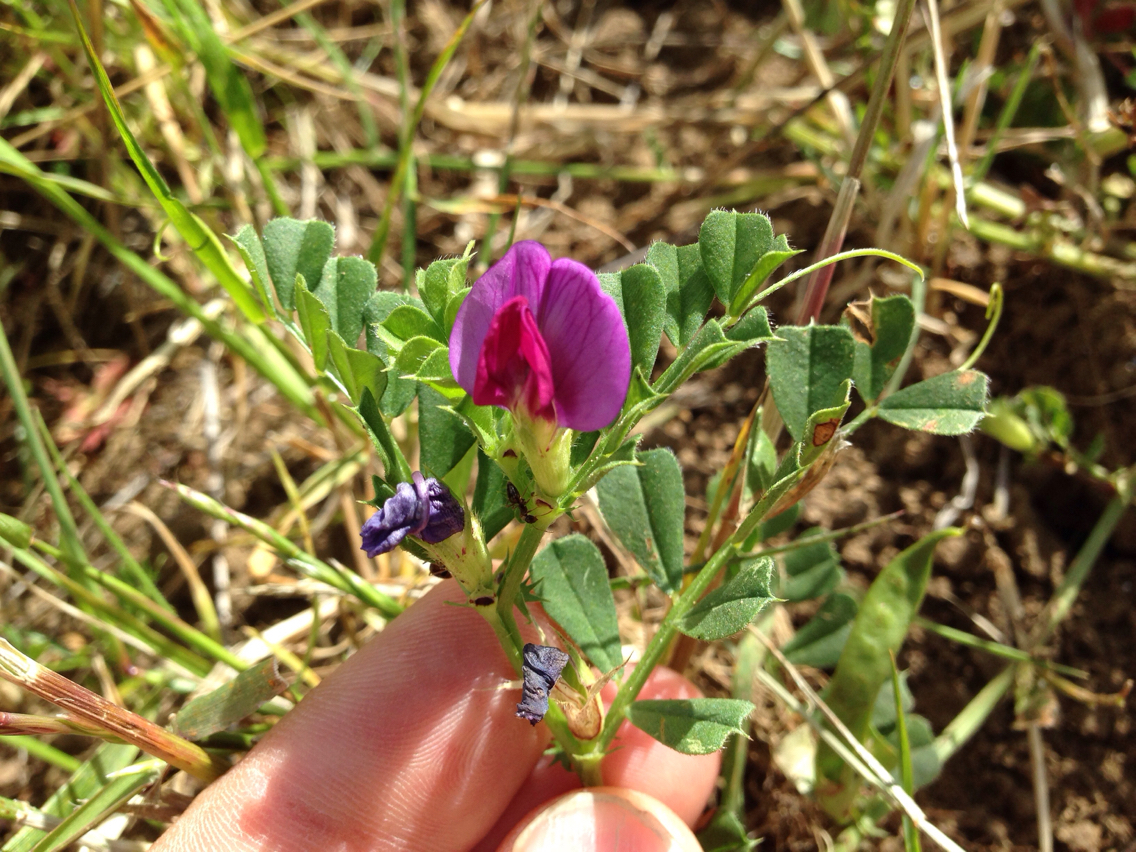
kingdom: Plantae
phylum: Tracheophyta
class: Magnoliopsida
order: Fabales
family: Fabaceae
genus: Vicia
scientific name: Vicia sativa
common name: Garden vetch
